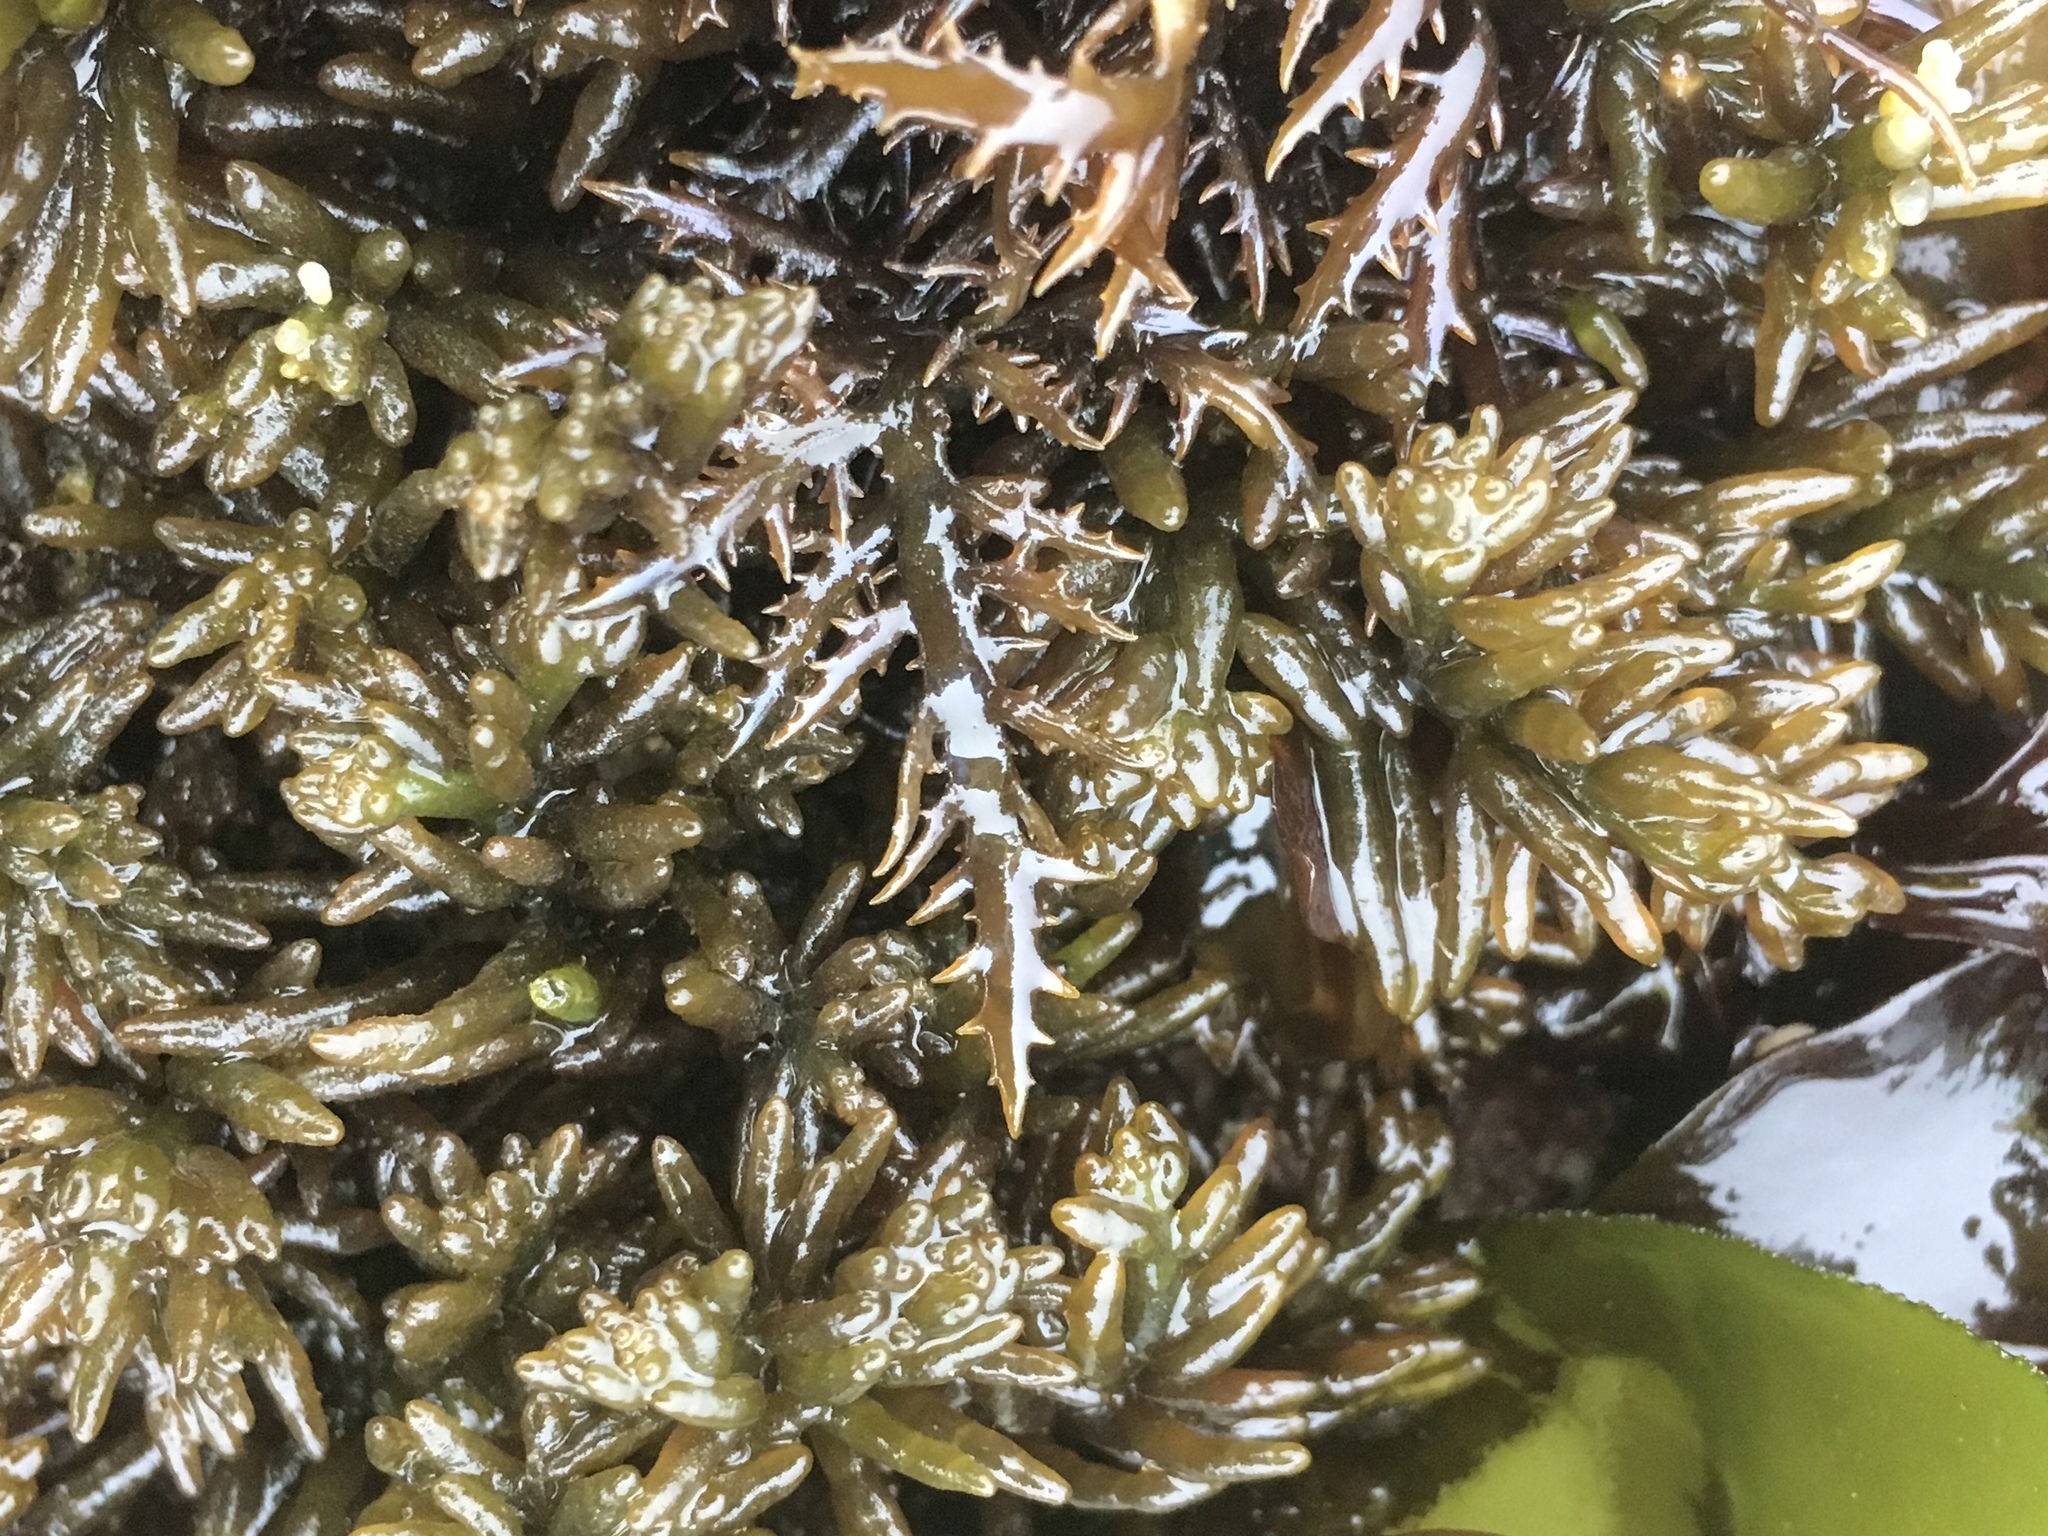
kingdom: Plantae
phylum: Rhodophyta
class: Florideophyceae
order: Rhodymeniales
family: Champiaceae
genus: Neogastroclonium
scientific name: Neogastroclonium subarticulatum
